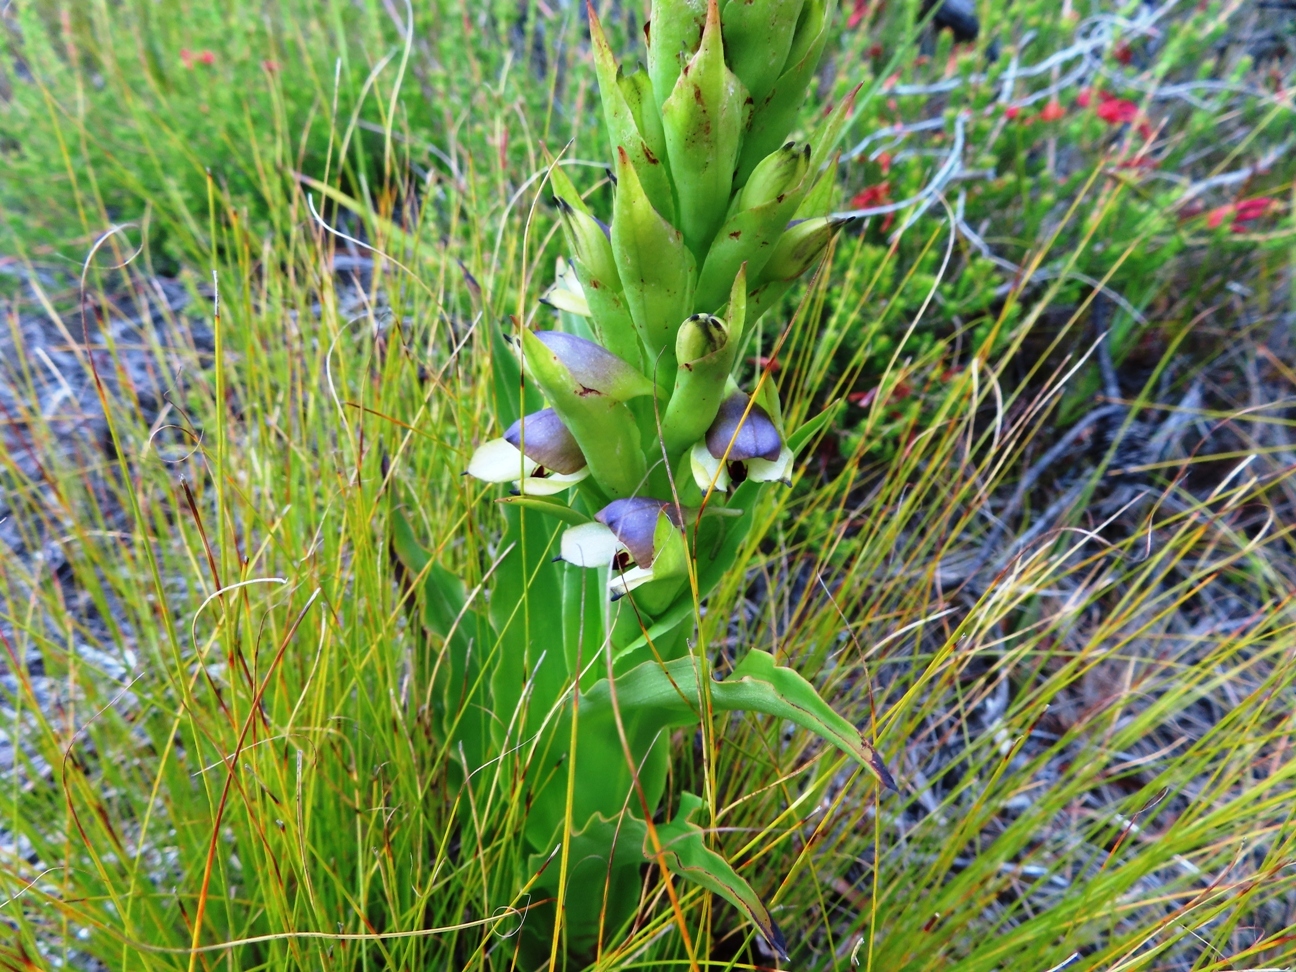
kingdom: Plantae
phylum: Tracheophyta
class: Liliopsida
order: Asparagales
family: Orchidaceae
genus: Disa
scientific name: Disa cornuta
